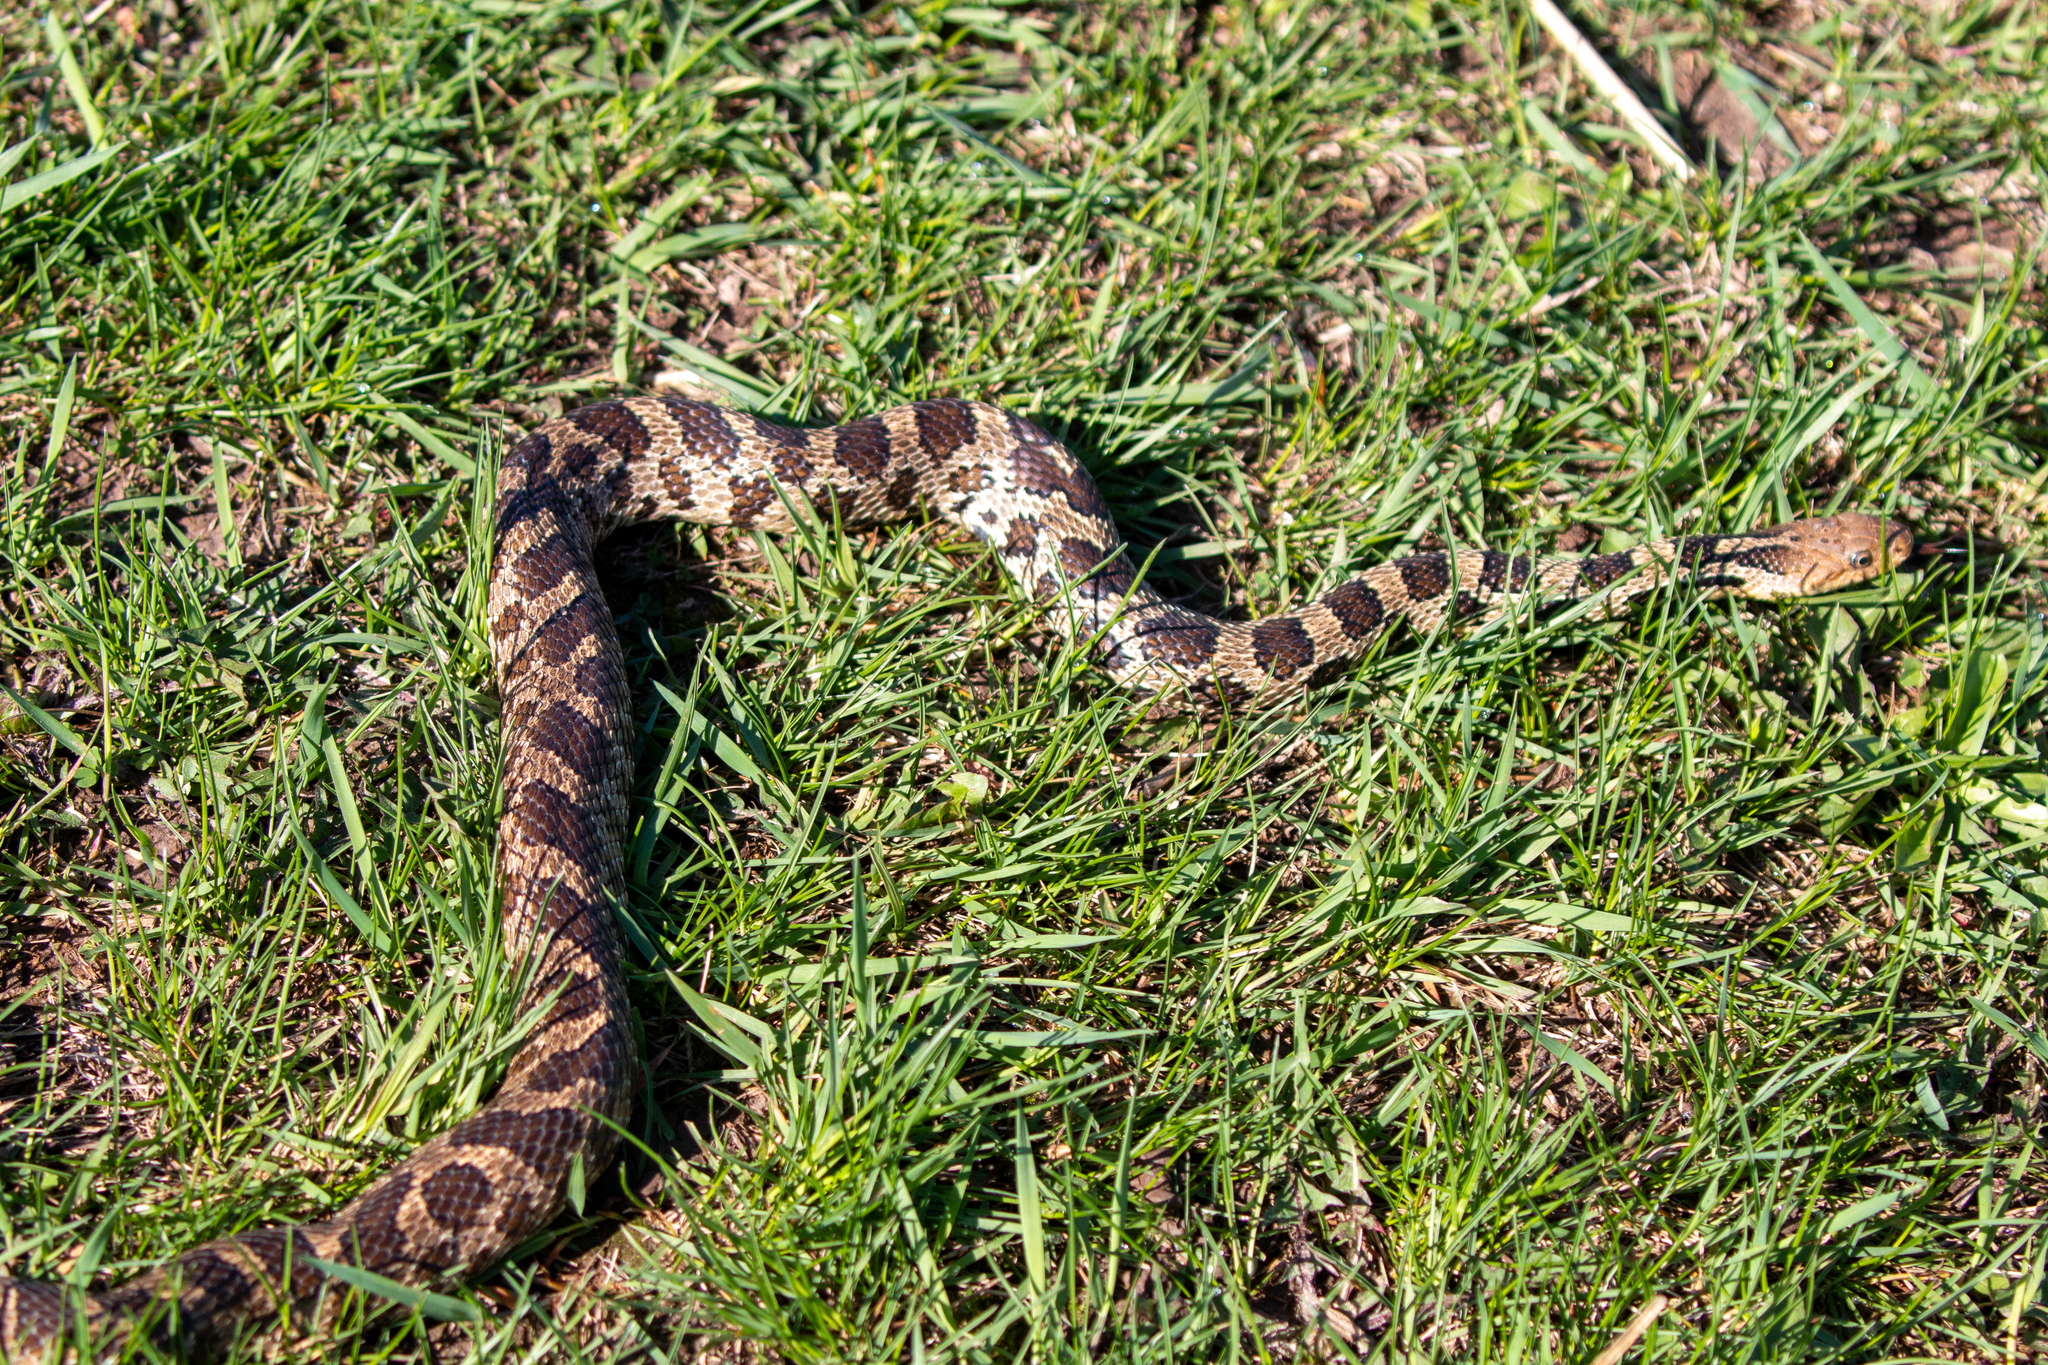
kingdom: Animalia
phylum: Chordata
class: Squamata
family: Colubridae
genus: Pantherophis
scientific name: Pantherophis ramspotti
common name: Western foxsnake
